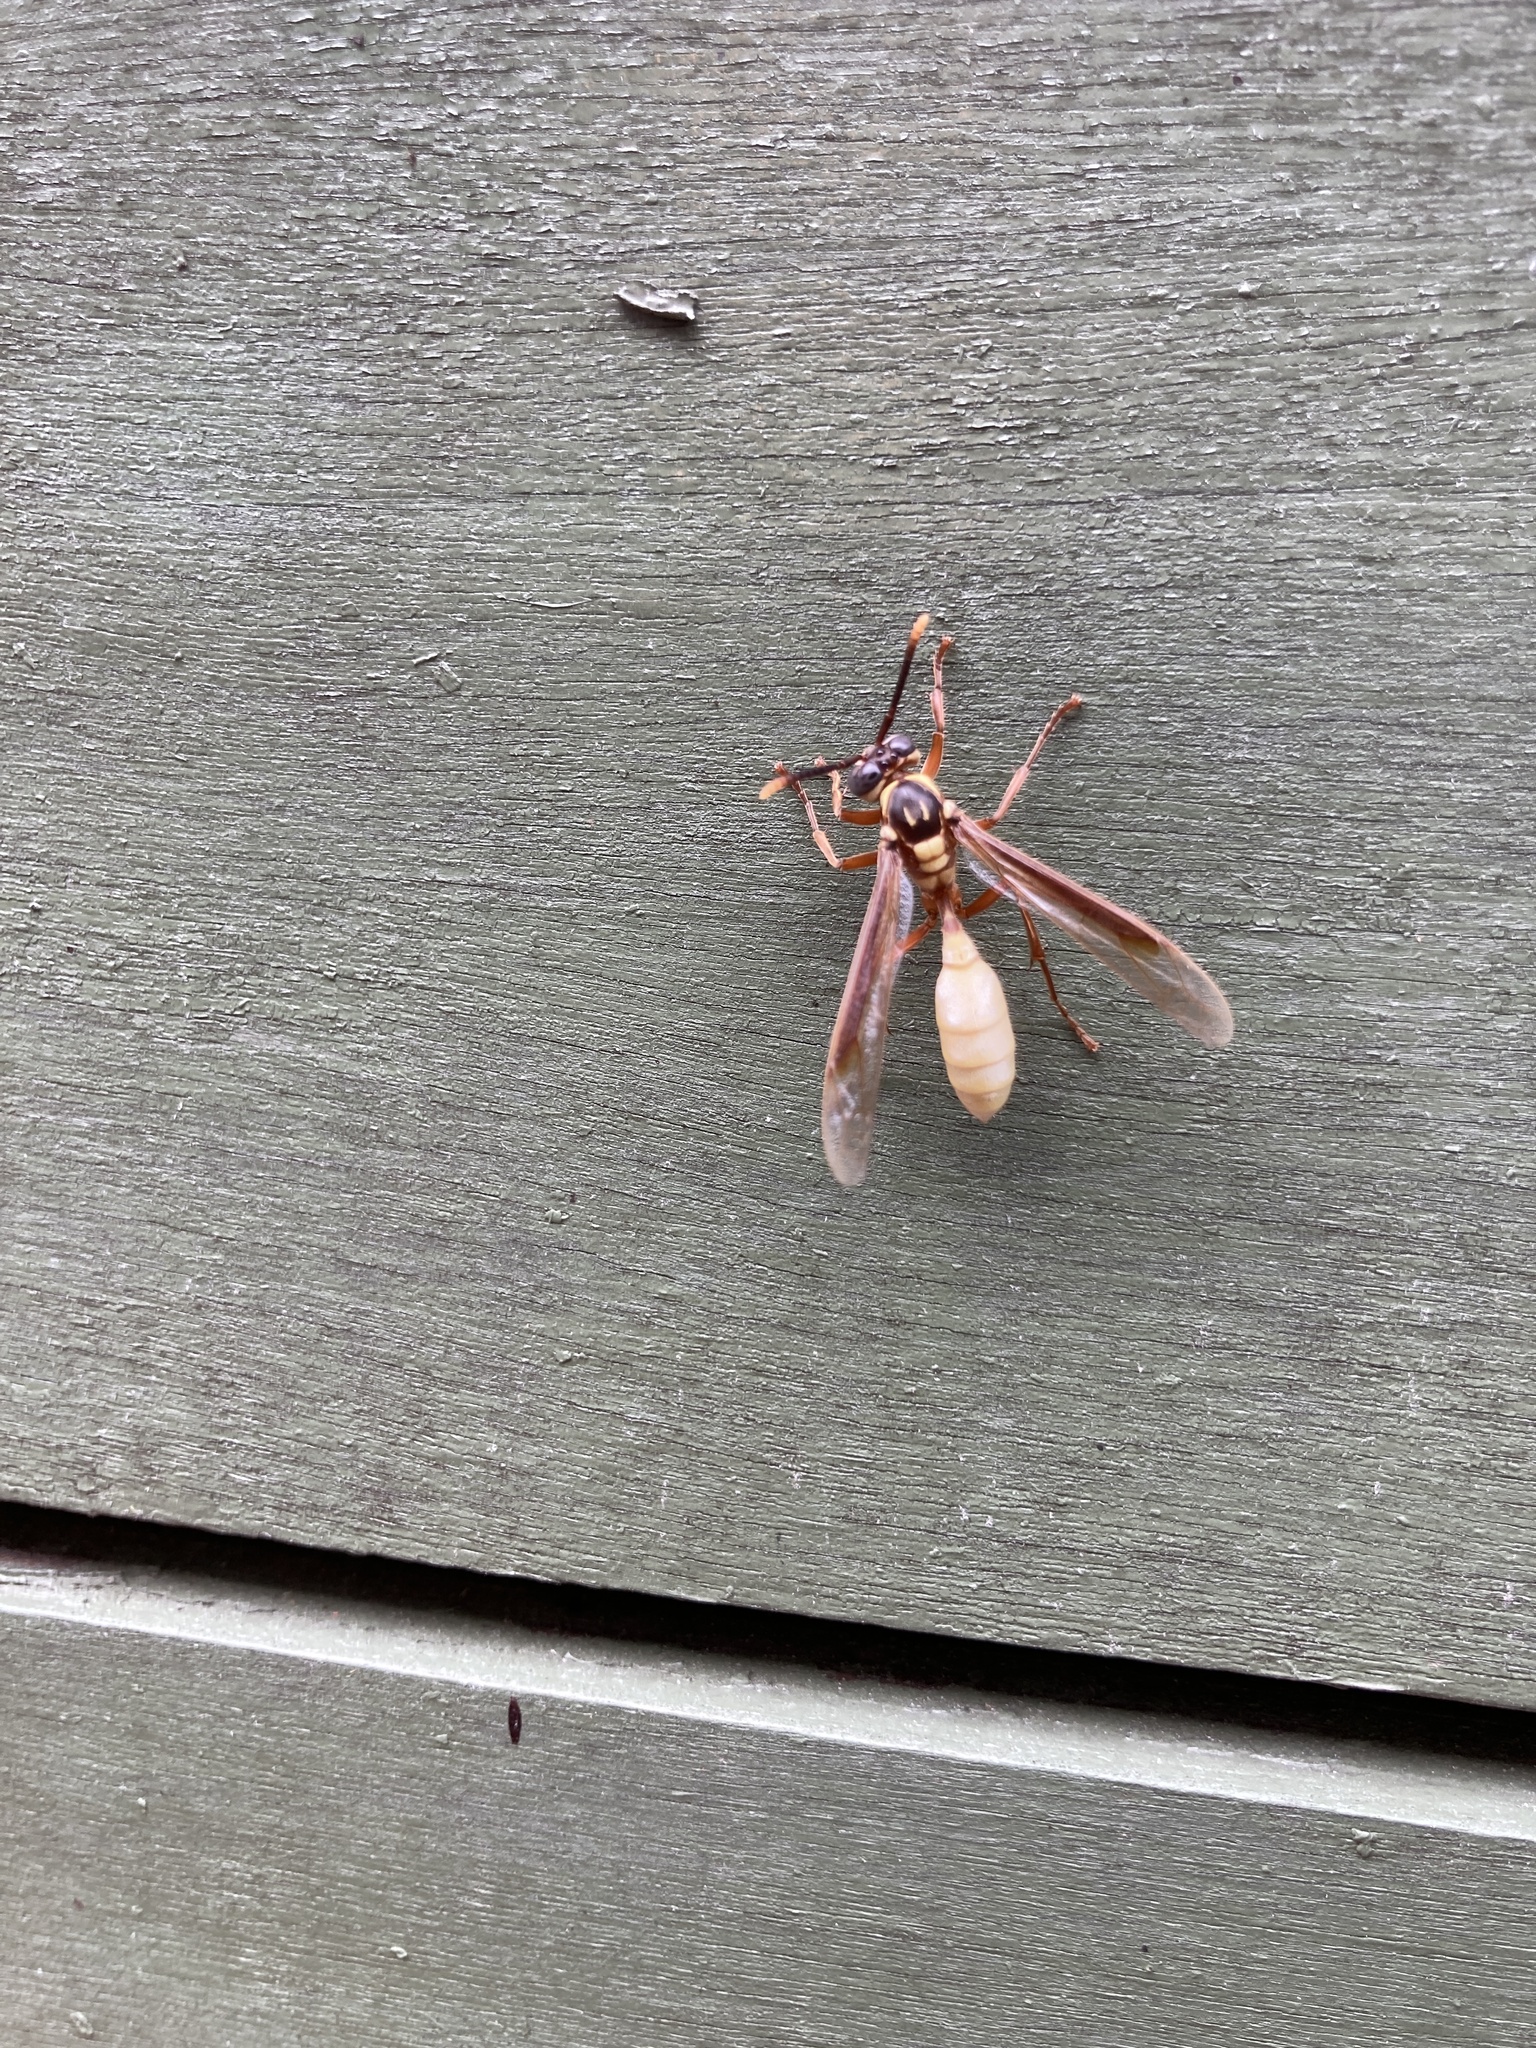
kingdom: Animalia
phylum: Arthropoda
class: Insecta
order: Hymenoptera
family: Vespidae
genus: Apoica
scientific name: Apoica pallens
